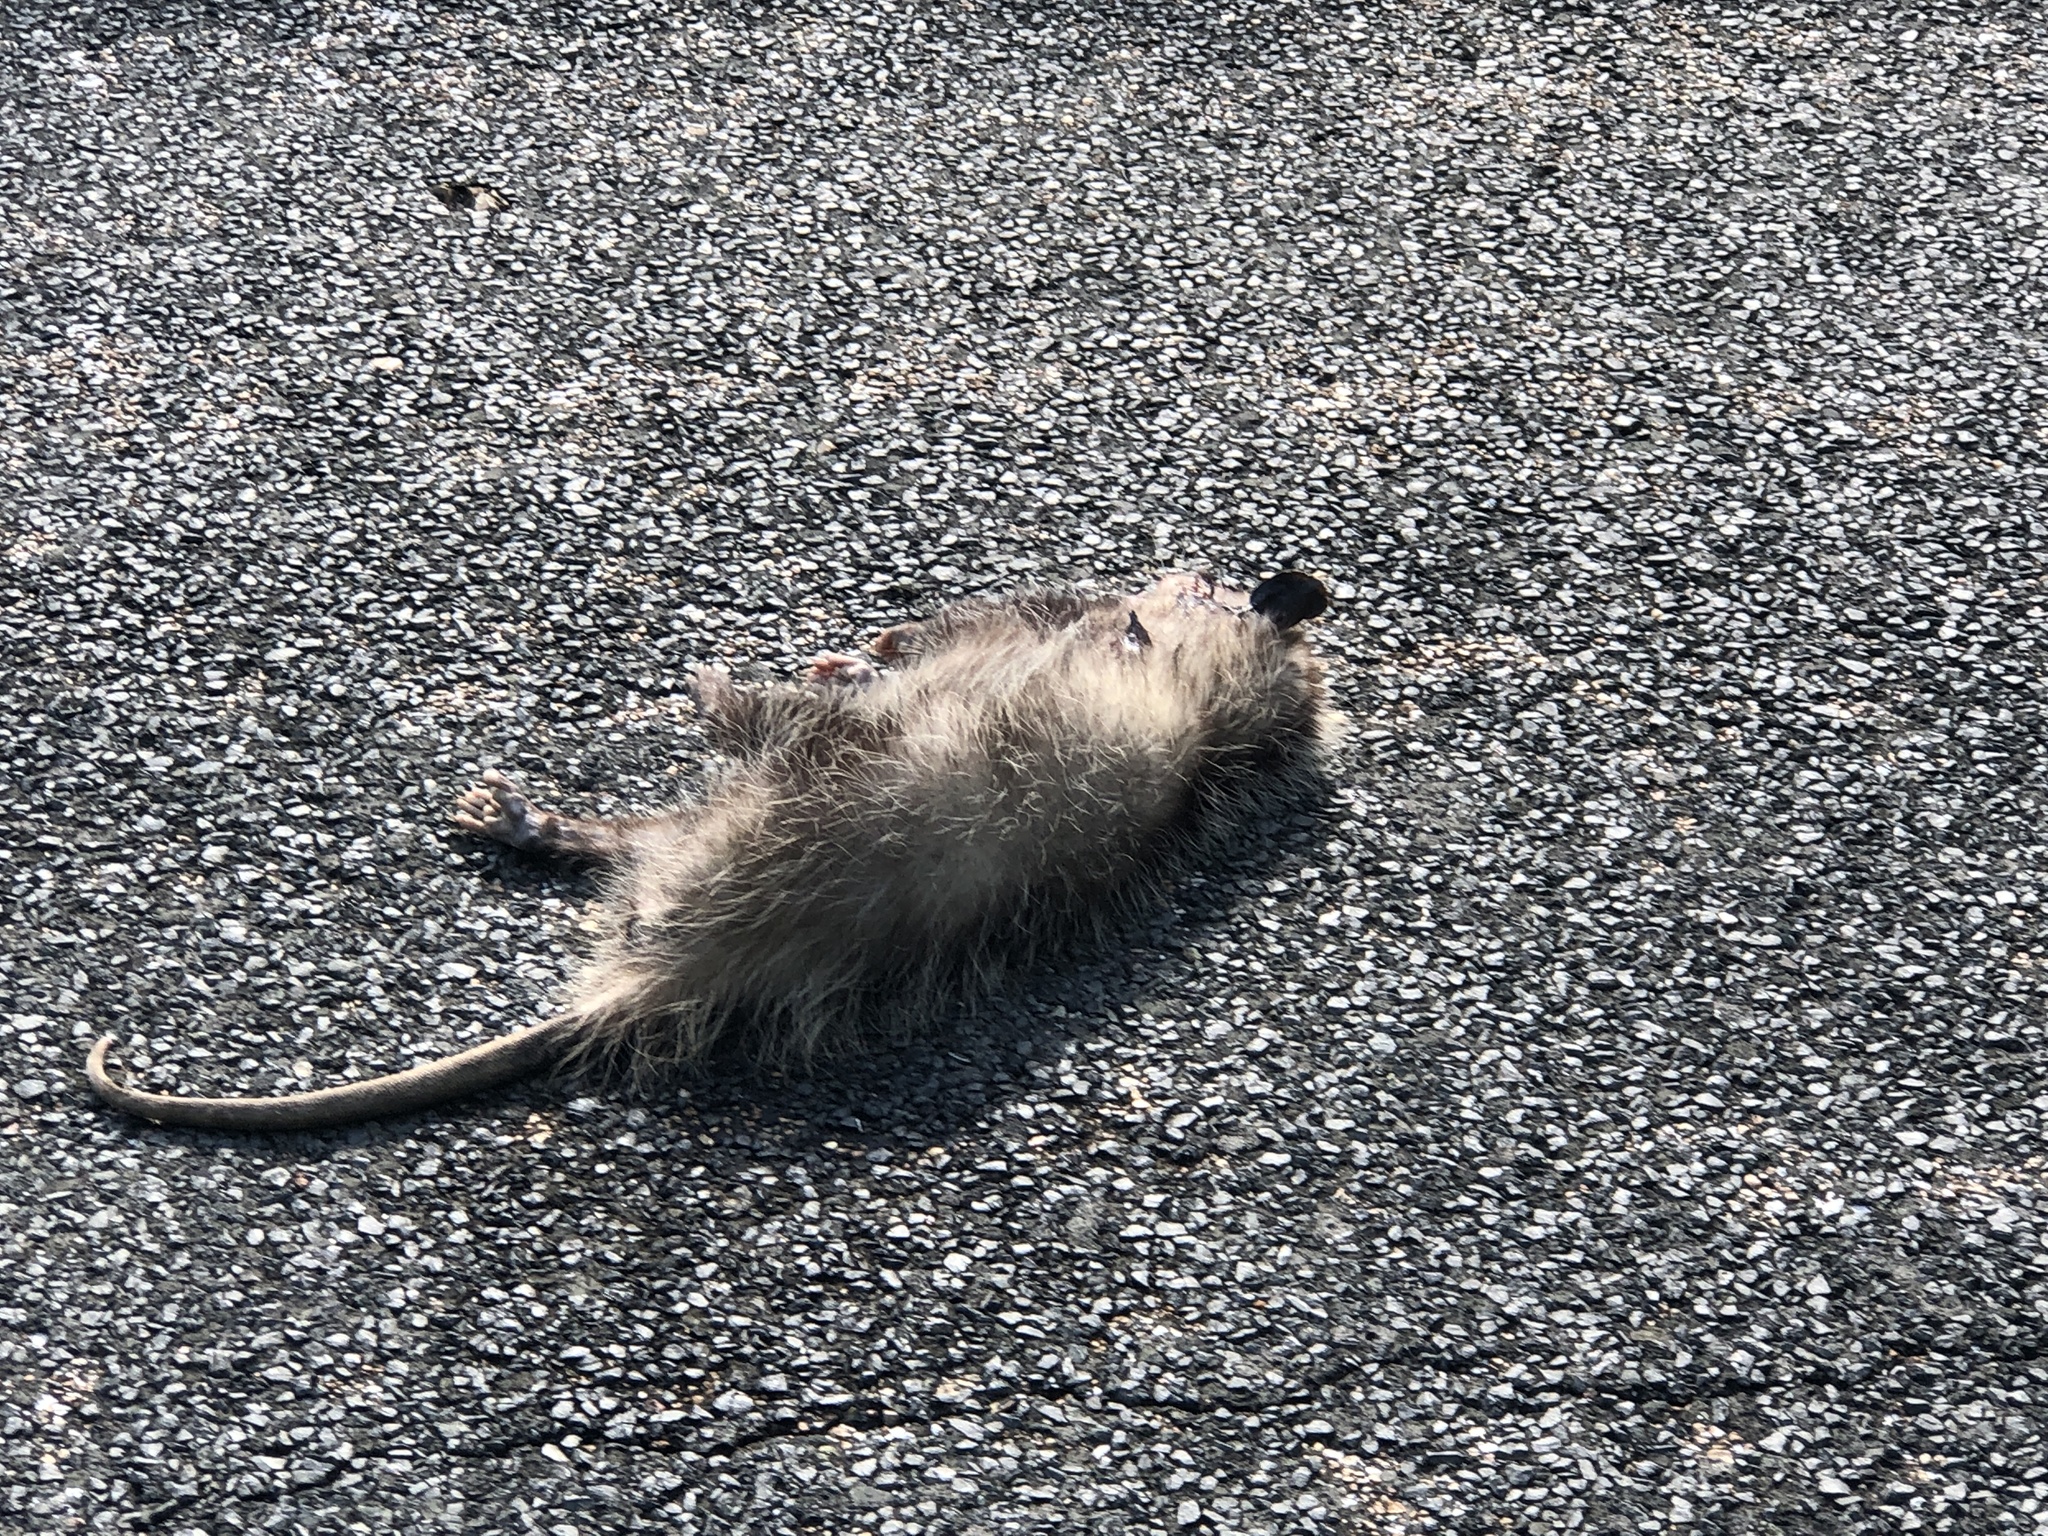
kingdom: Animalia
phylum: Chordata
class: Mammalia
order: Didelphimorphia
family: Didelphidae
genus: Didelphis
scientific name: Didelphis virginiana
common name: Virginia opossum
